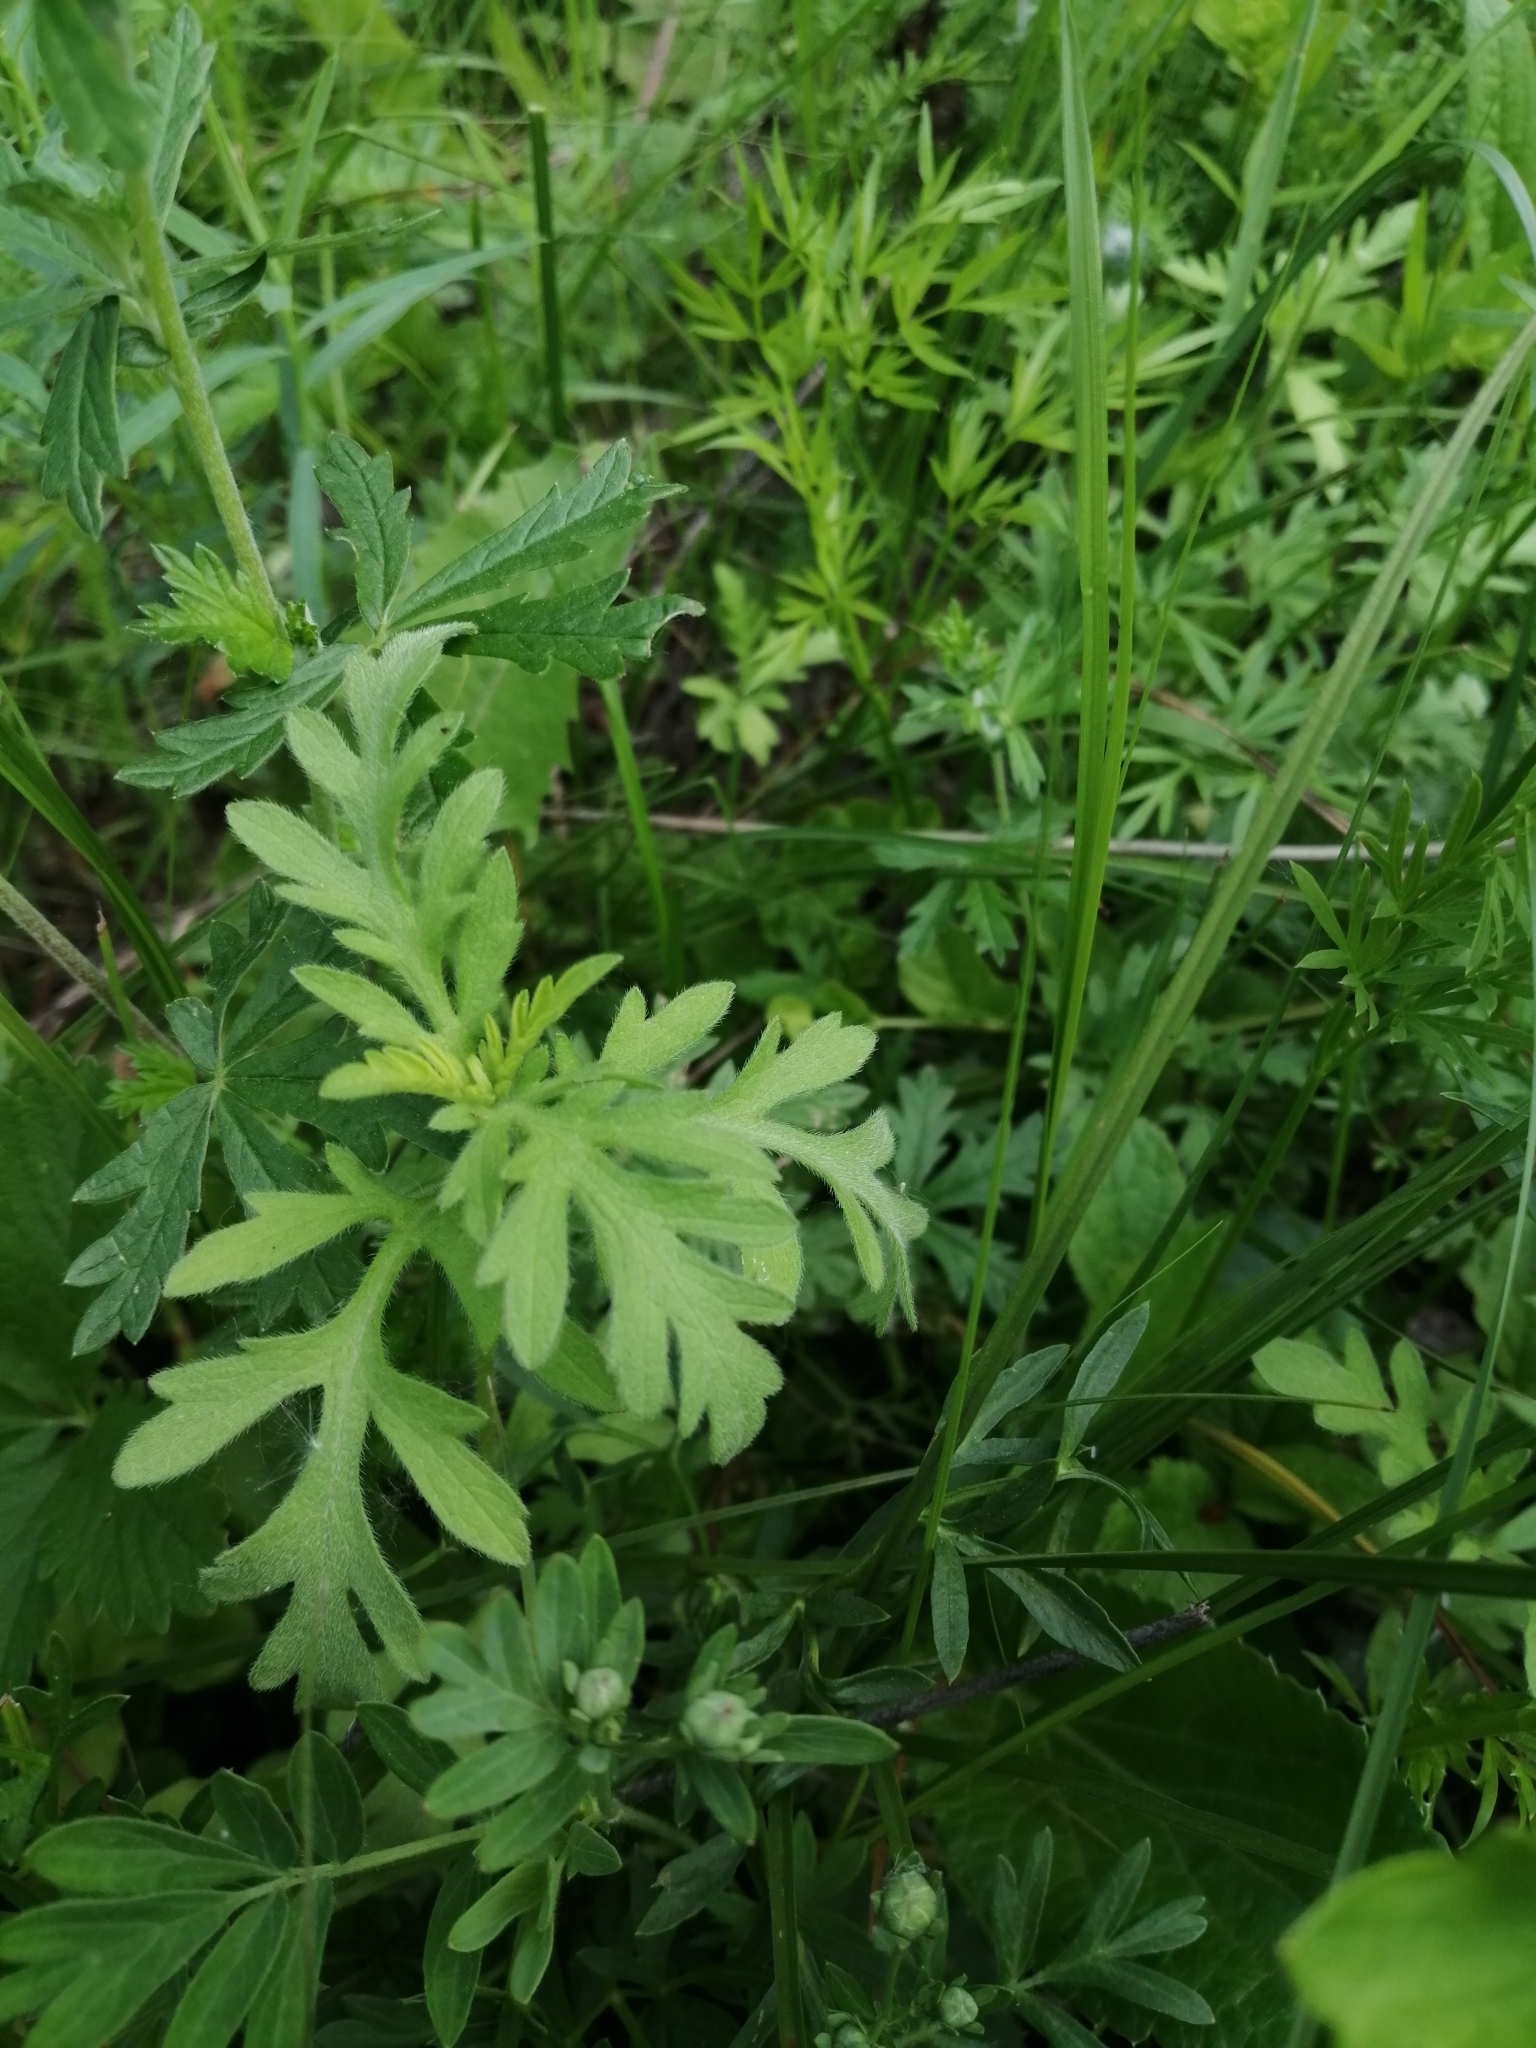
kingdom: Plantae
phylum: Tracheophyta
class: Magnoliopsida
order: Asterales
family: Asteraceae
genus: Ambrosia
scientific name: Ambrosia psilostachya
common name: Perennial ragweed
